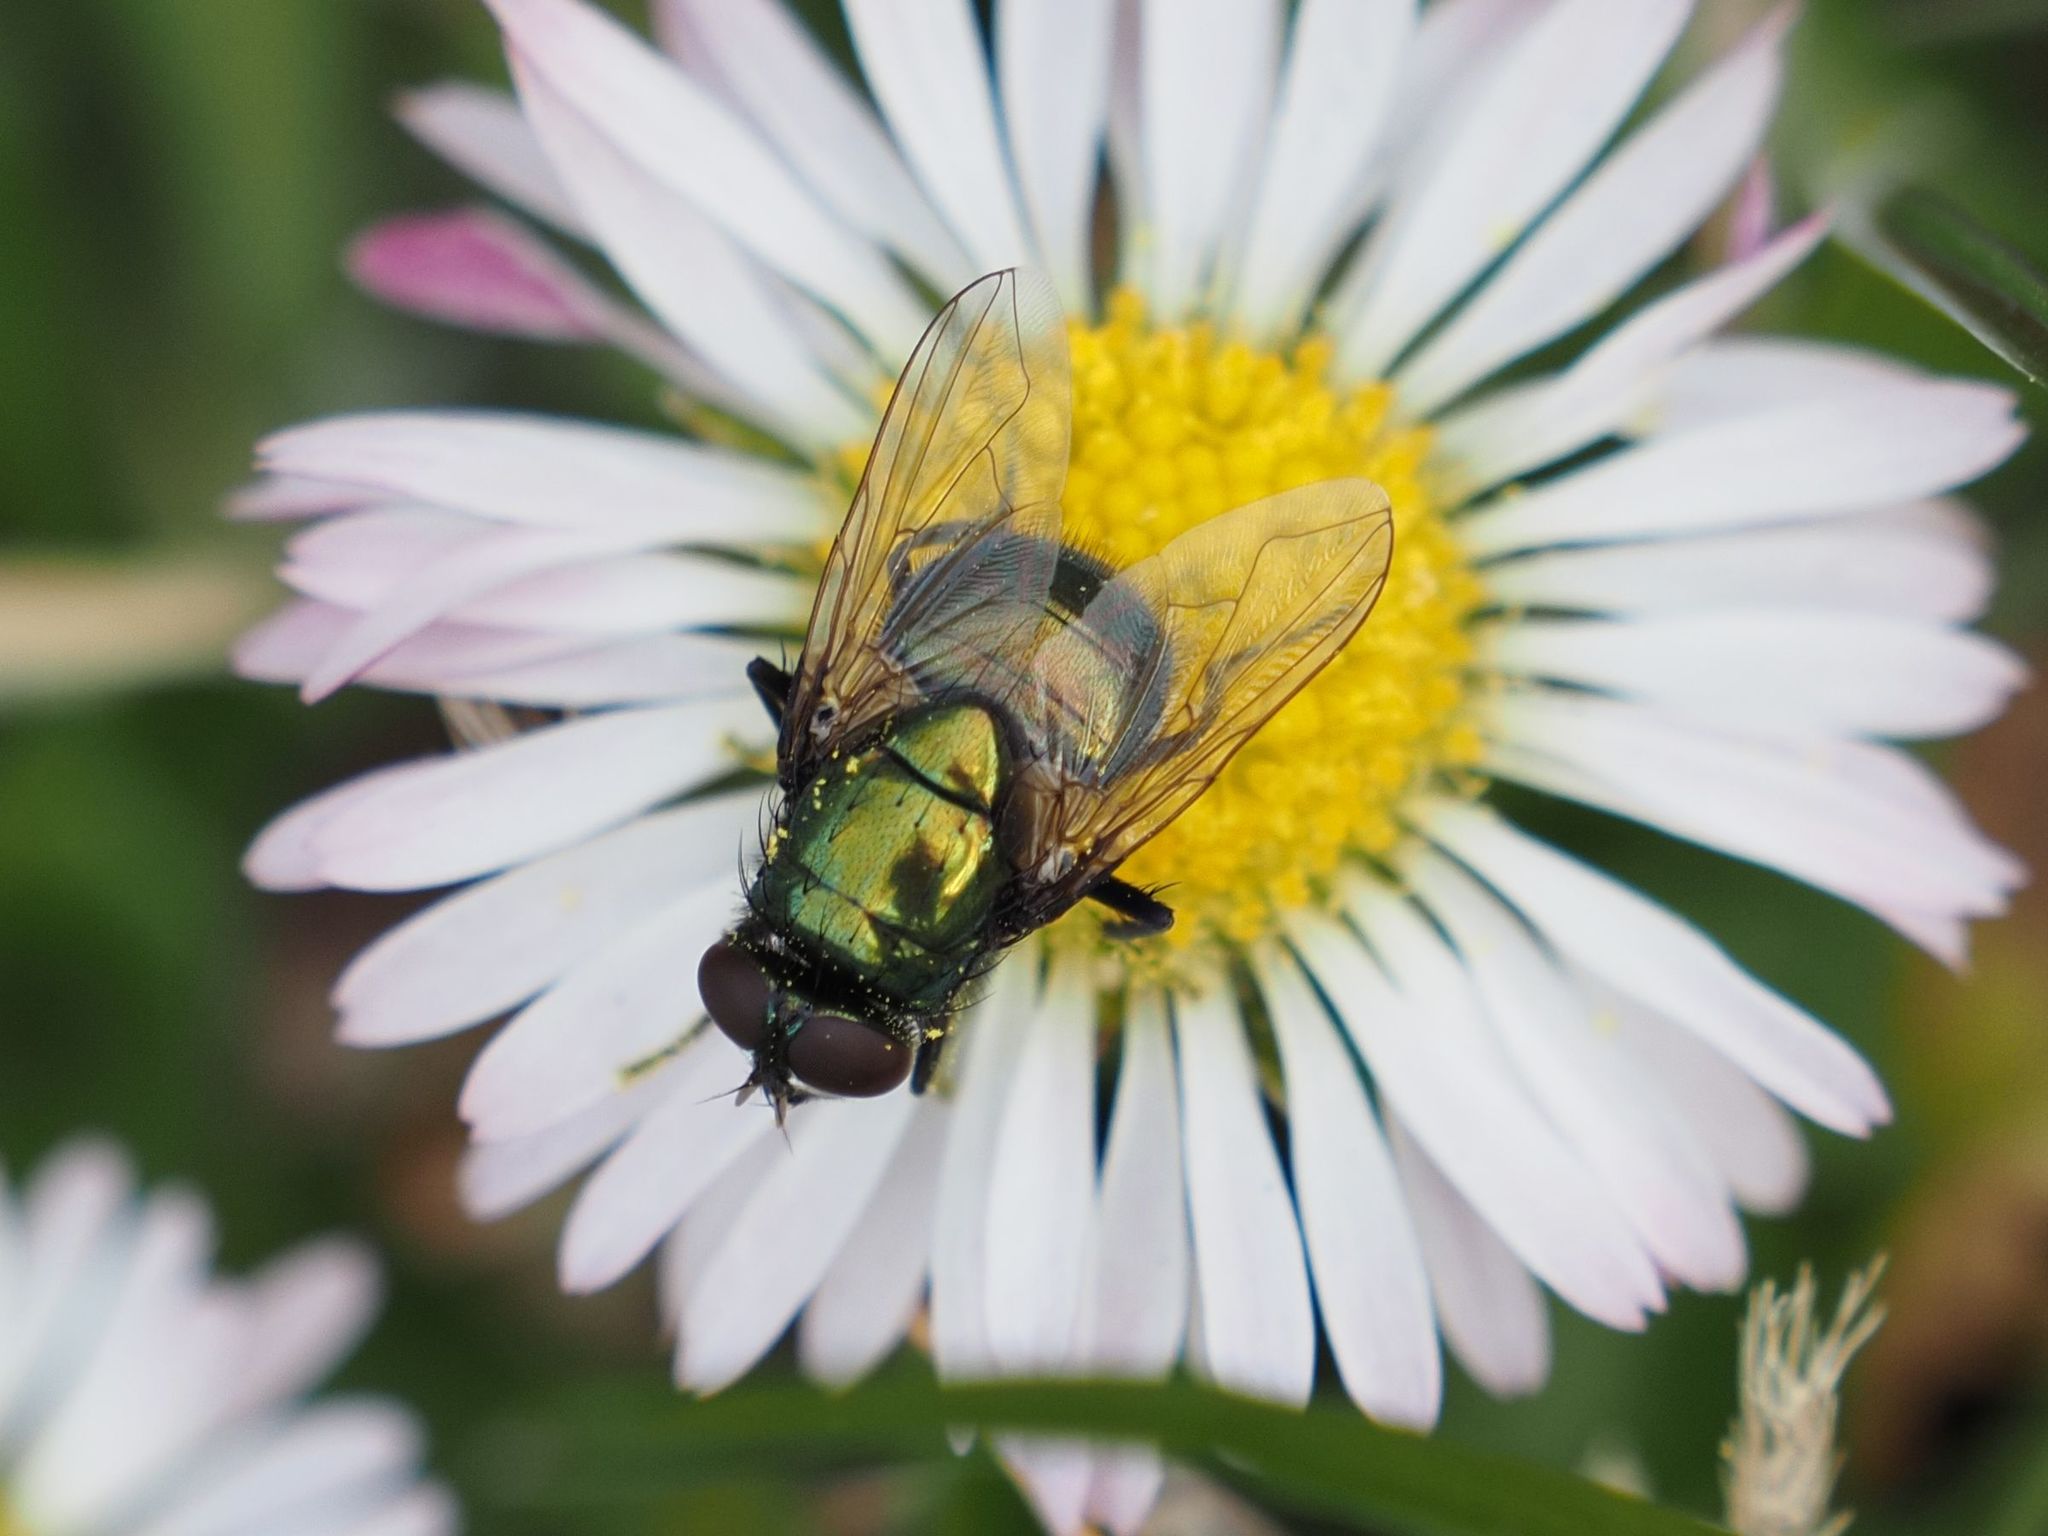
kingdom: Animalia
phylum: Arthropoda
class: Insecta
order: Diptera
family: Muscidae
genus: Neomyia
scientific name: Neomyia cornicina
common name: House fly
